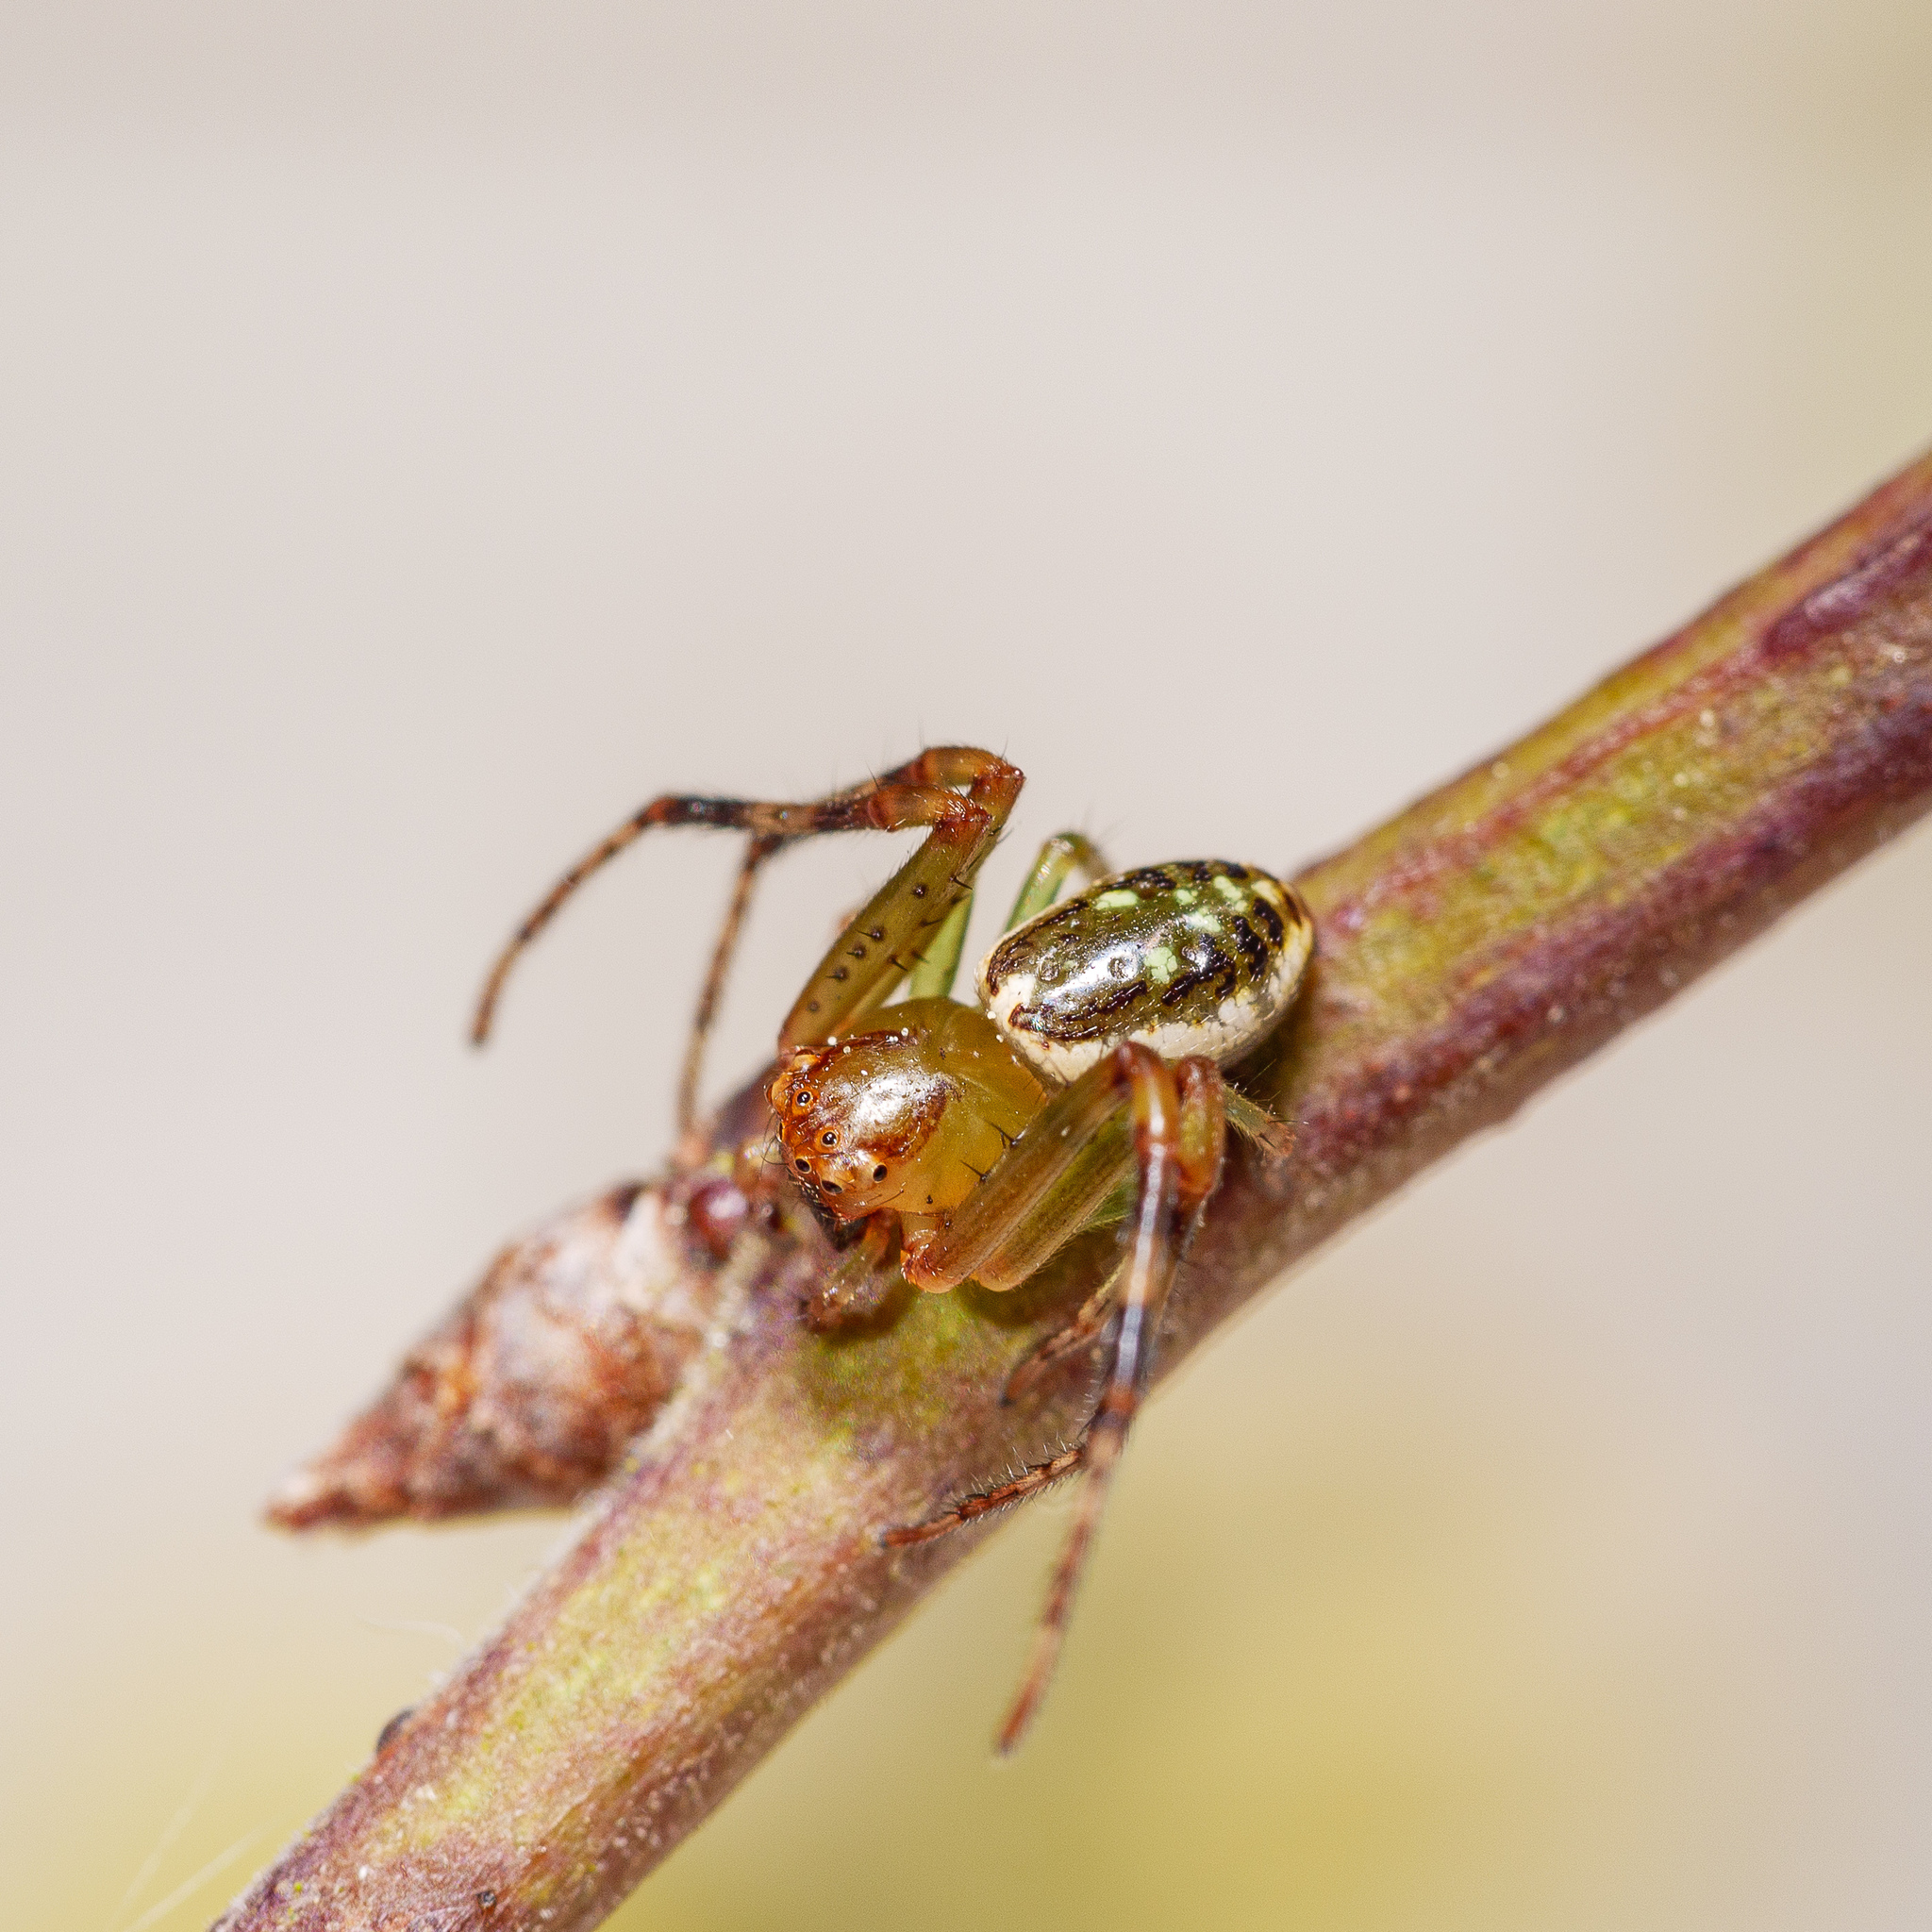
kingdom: Animalia
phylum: Arthropoda
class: Arachnida
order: Araneae
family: Thomisidae
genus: Diaea
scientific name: Diaea ambara
